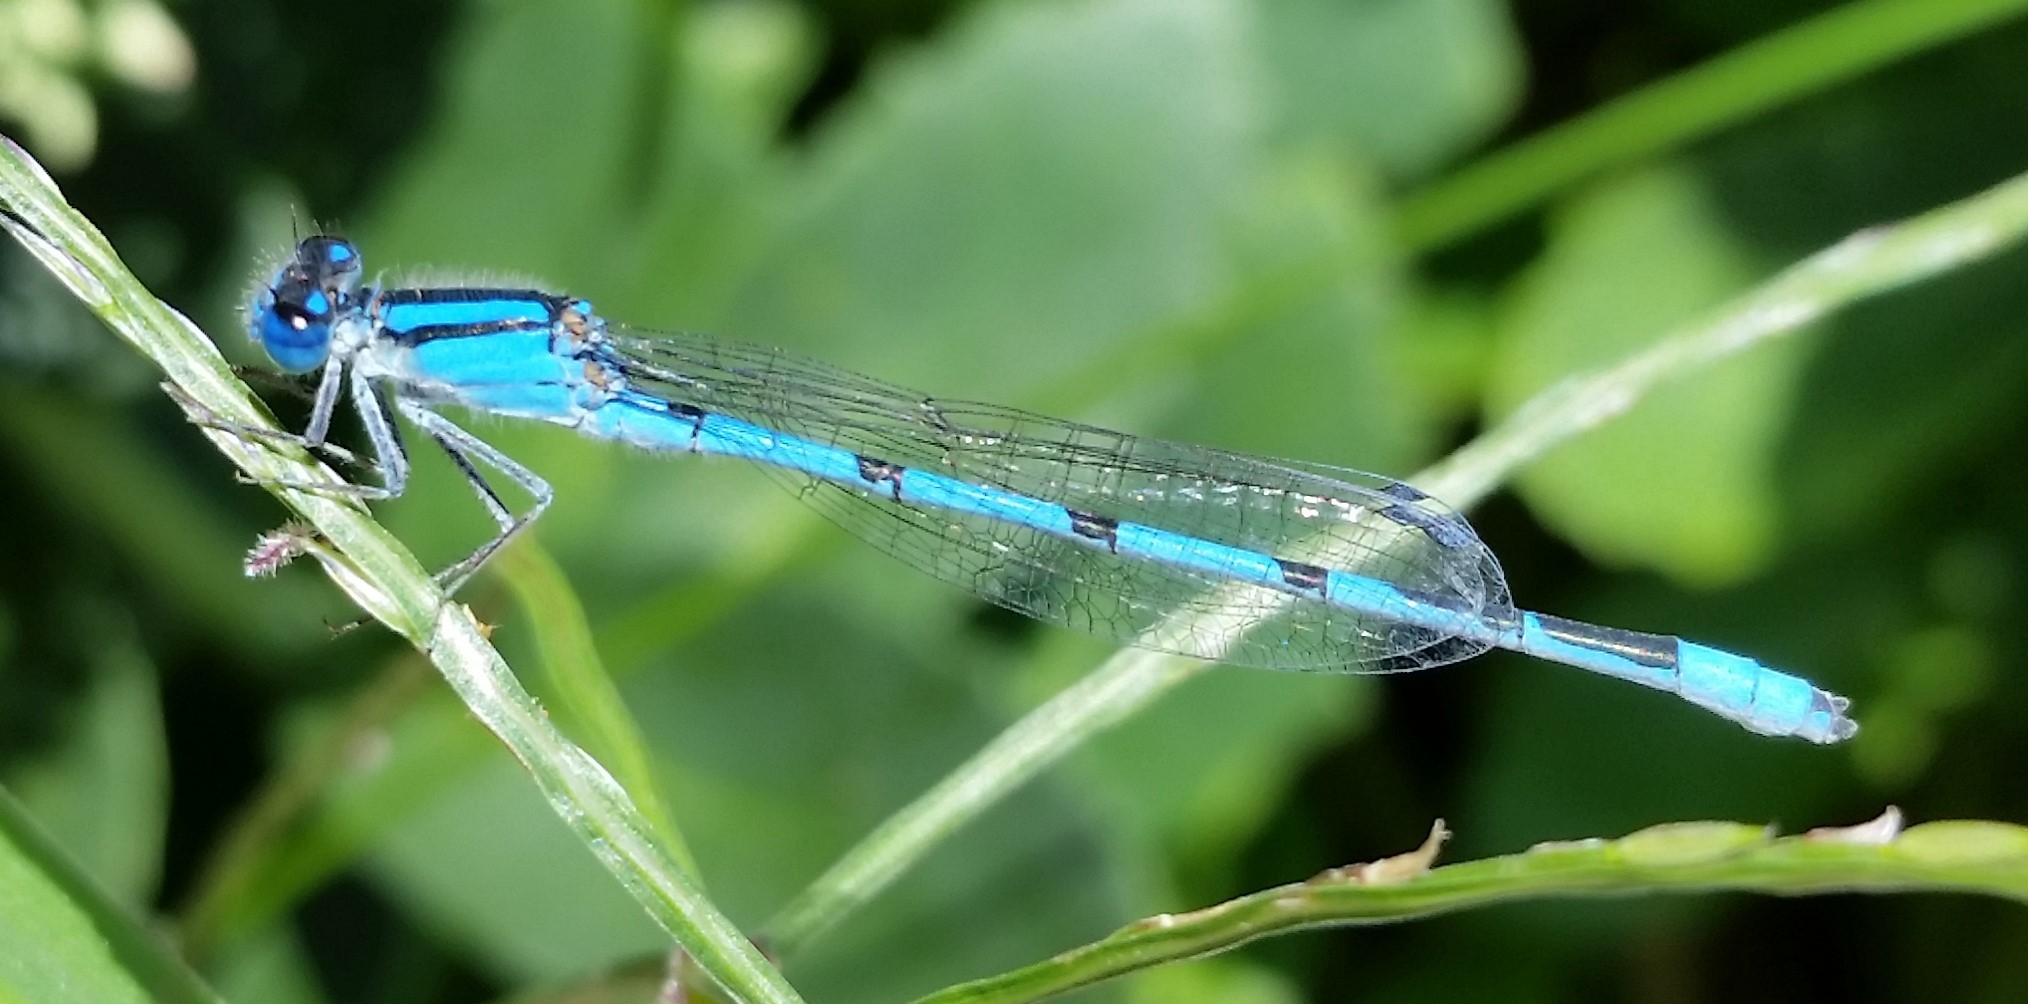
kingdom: Animalia
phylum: Arthropoda
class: Insecta
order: Odonata
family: Coenagrionidae
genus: Enallagma
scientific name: Enallagma civile
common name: Damselfly
